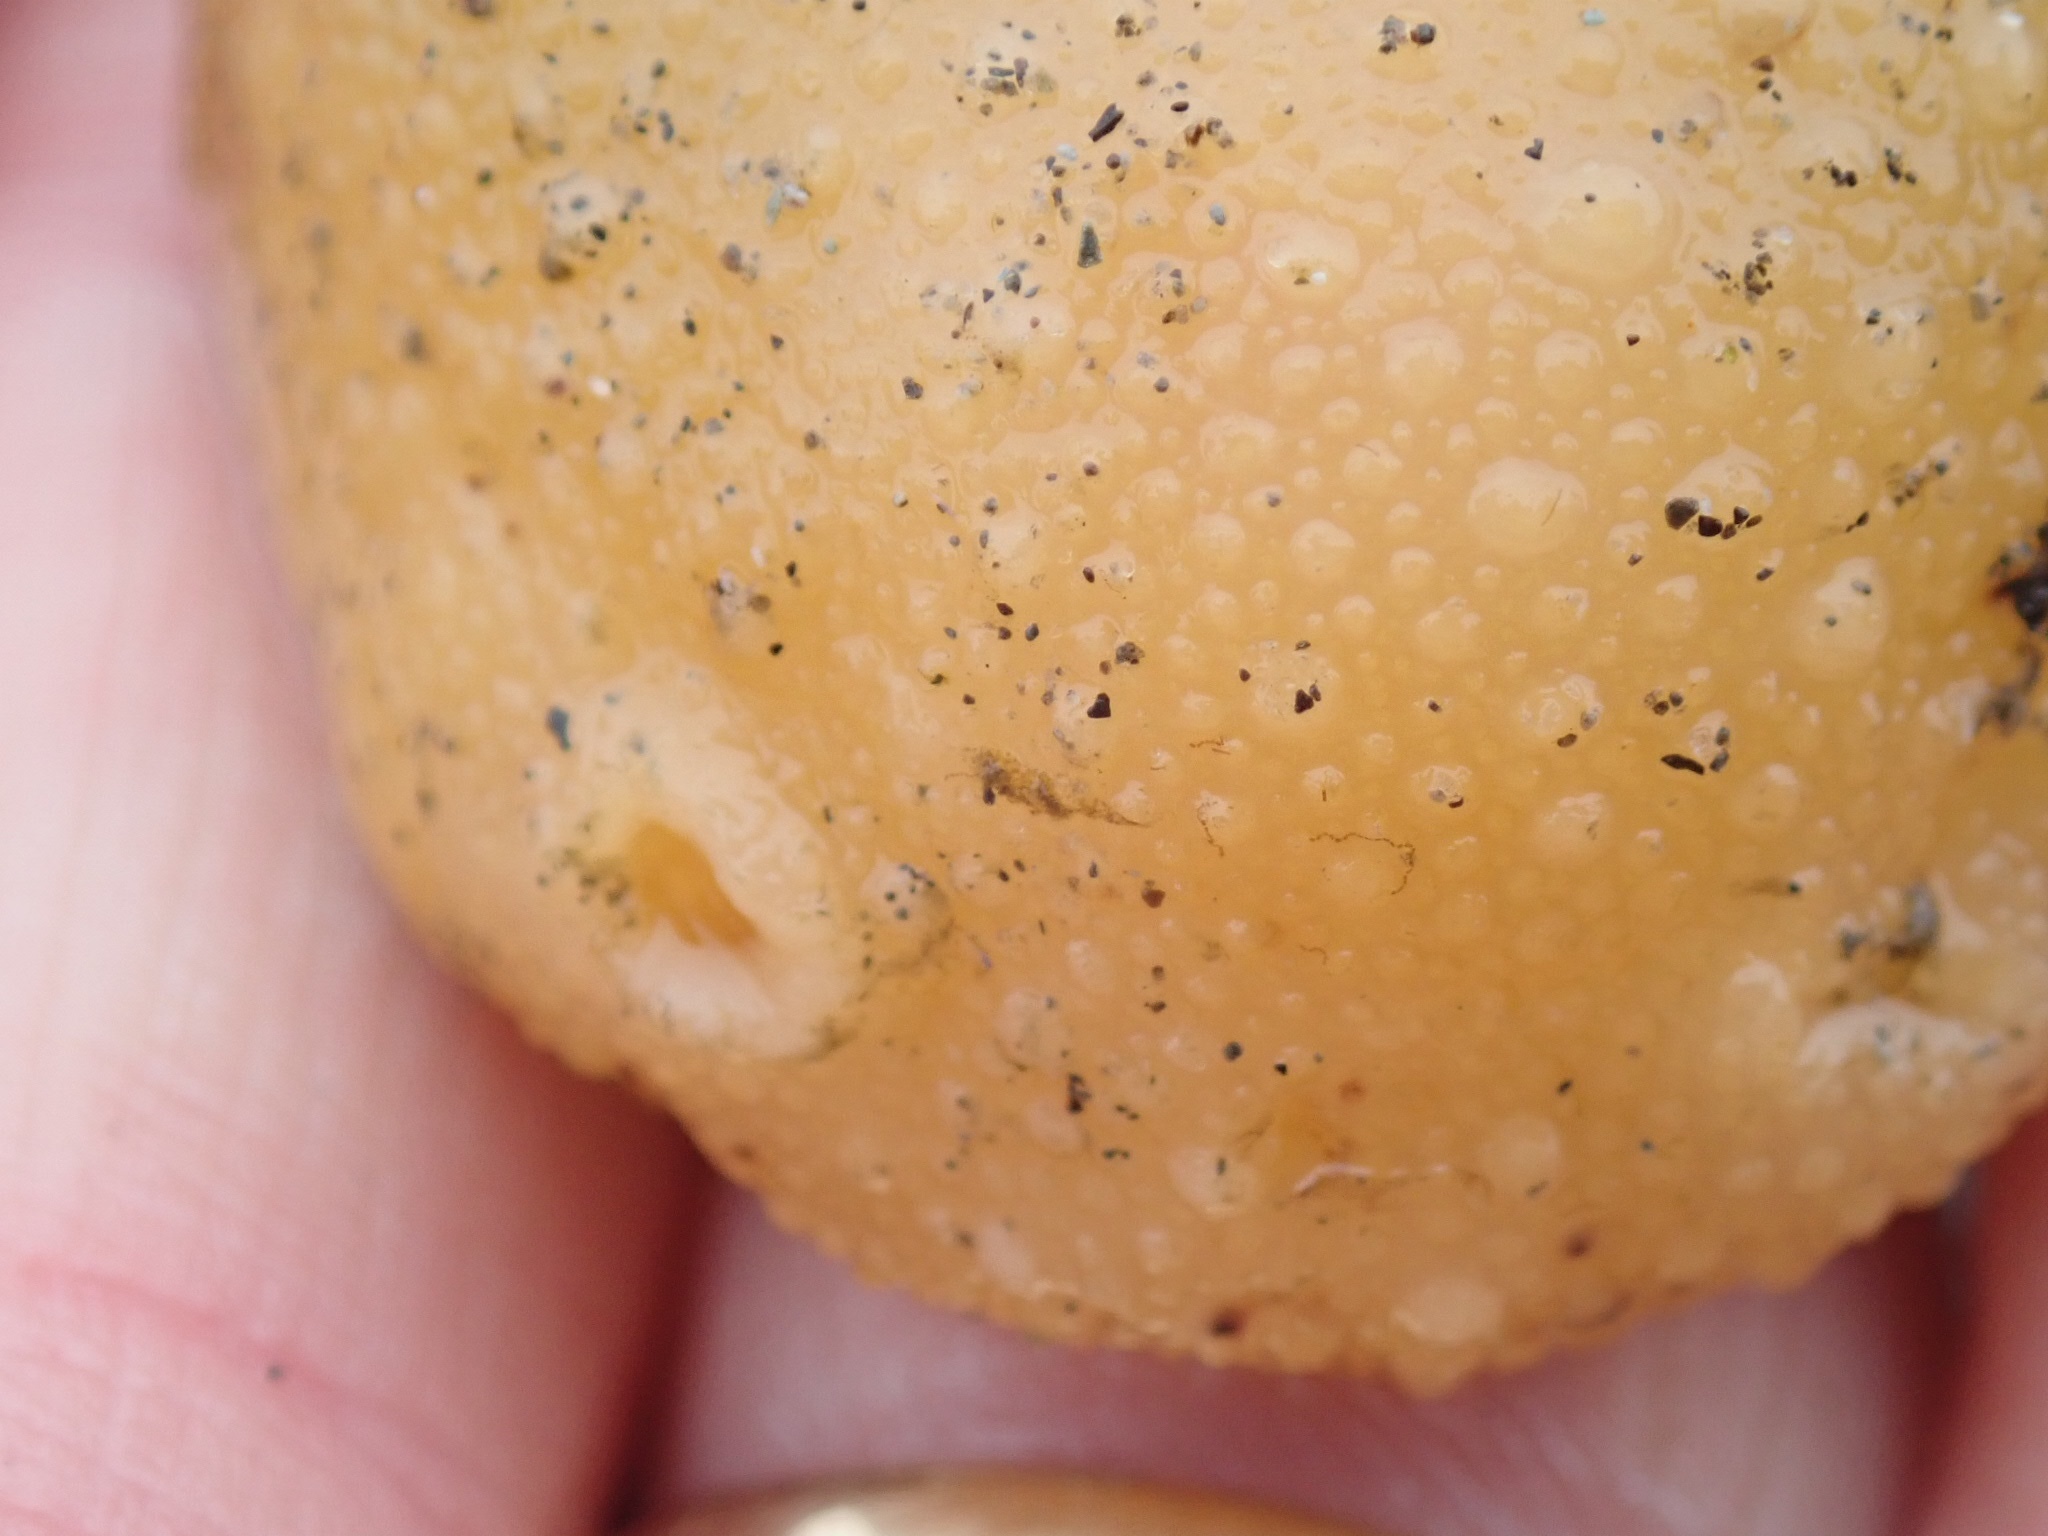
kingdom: Animalia
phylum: Mollusca
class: Gastropoda
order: Nudibranchia
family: Dorididae
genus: Doris
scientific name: Doris montereyensis
